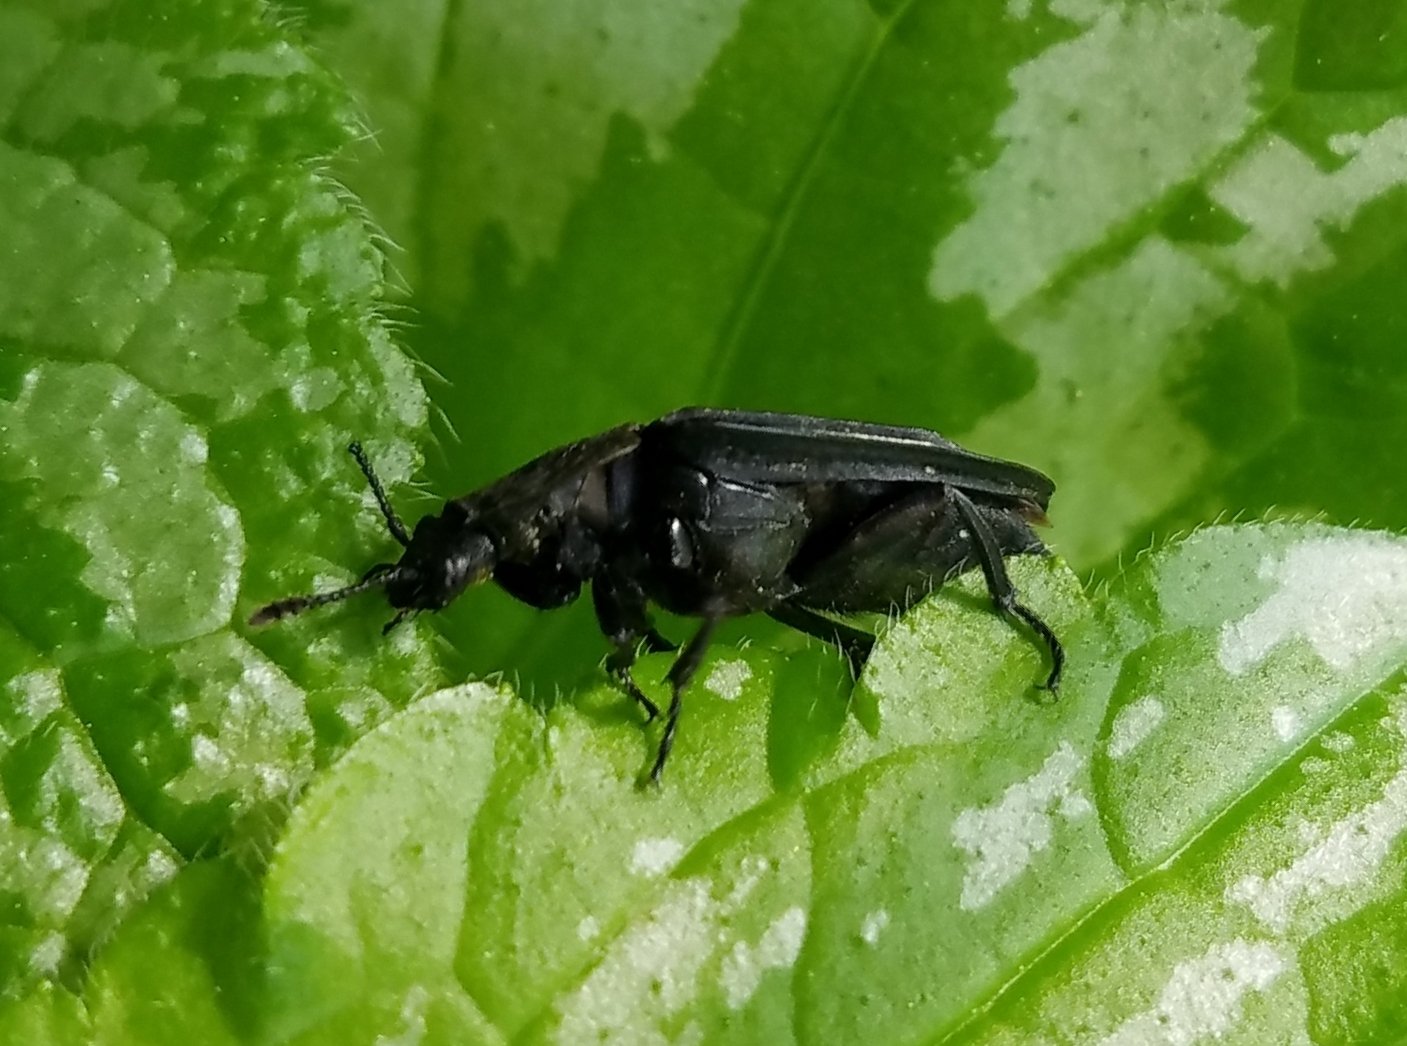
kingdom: Animalia
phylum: Arthropoda
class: Insecta
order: Coleoptera
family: Staphylinidae
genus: Oiceoptoma
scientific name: Oiceoptoma inaequale
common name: Ridged carrion beetle
